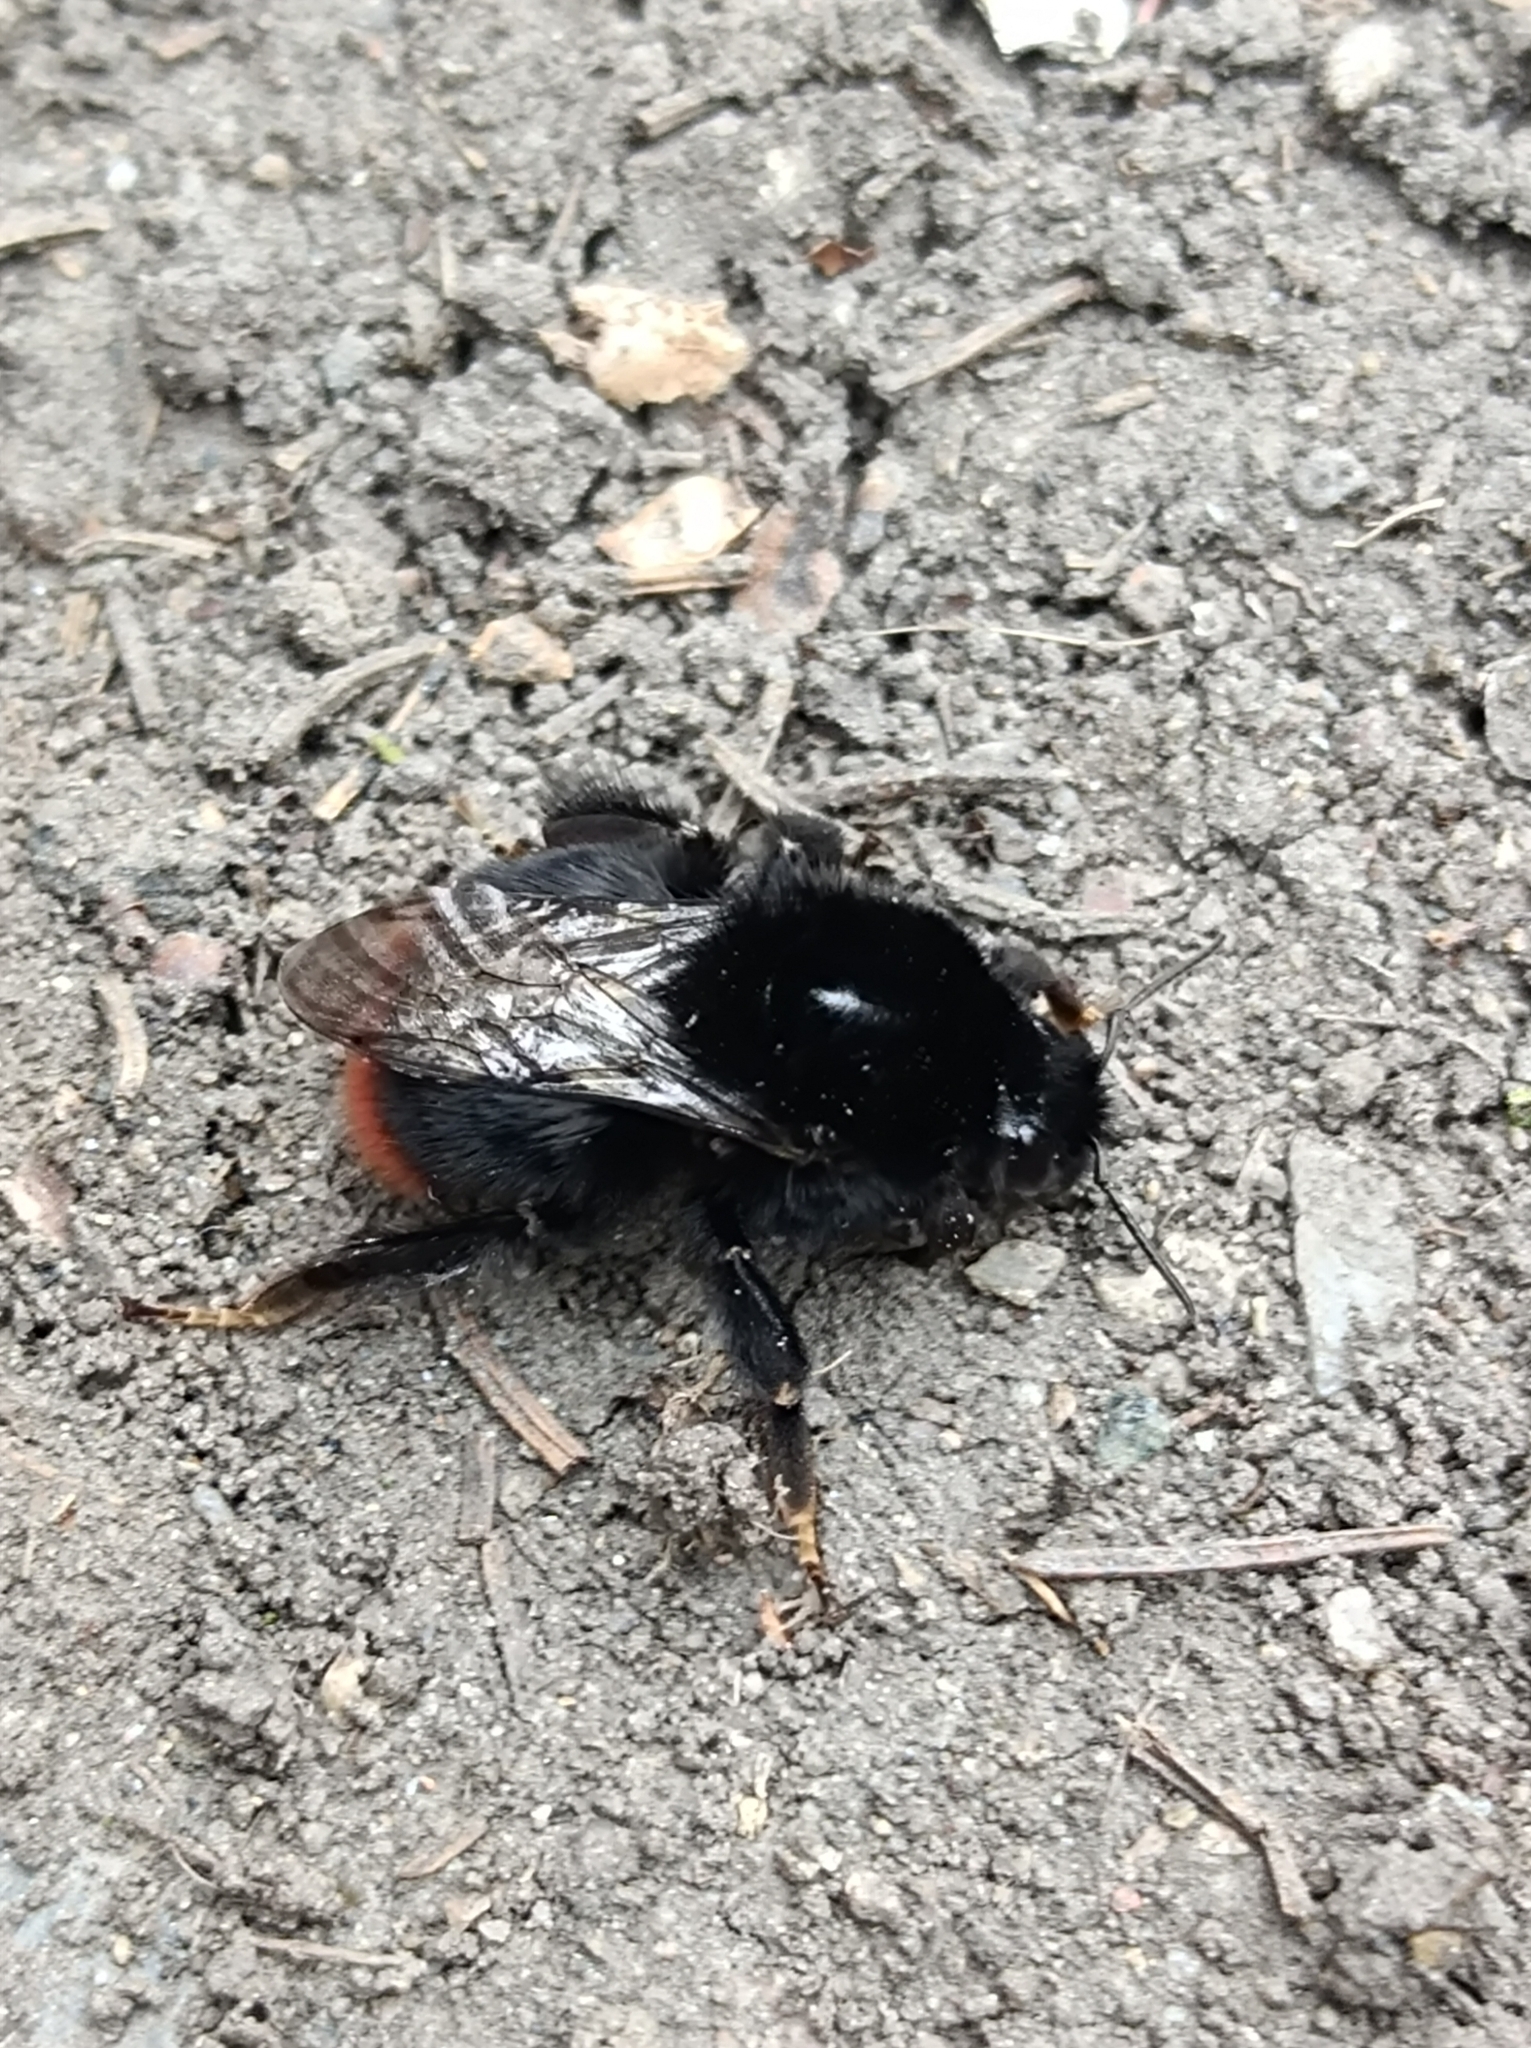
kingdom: Animalia
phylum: Arthropoda
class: Insecta
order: Hymenoptera
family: Apidae
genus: Bombus
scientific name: Bombus lapidarius
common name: Large red-tailed humble-bee
